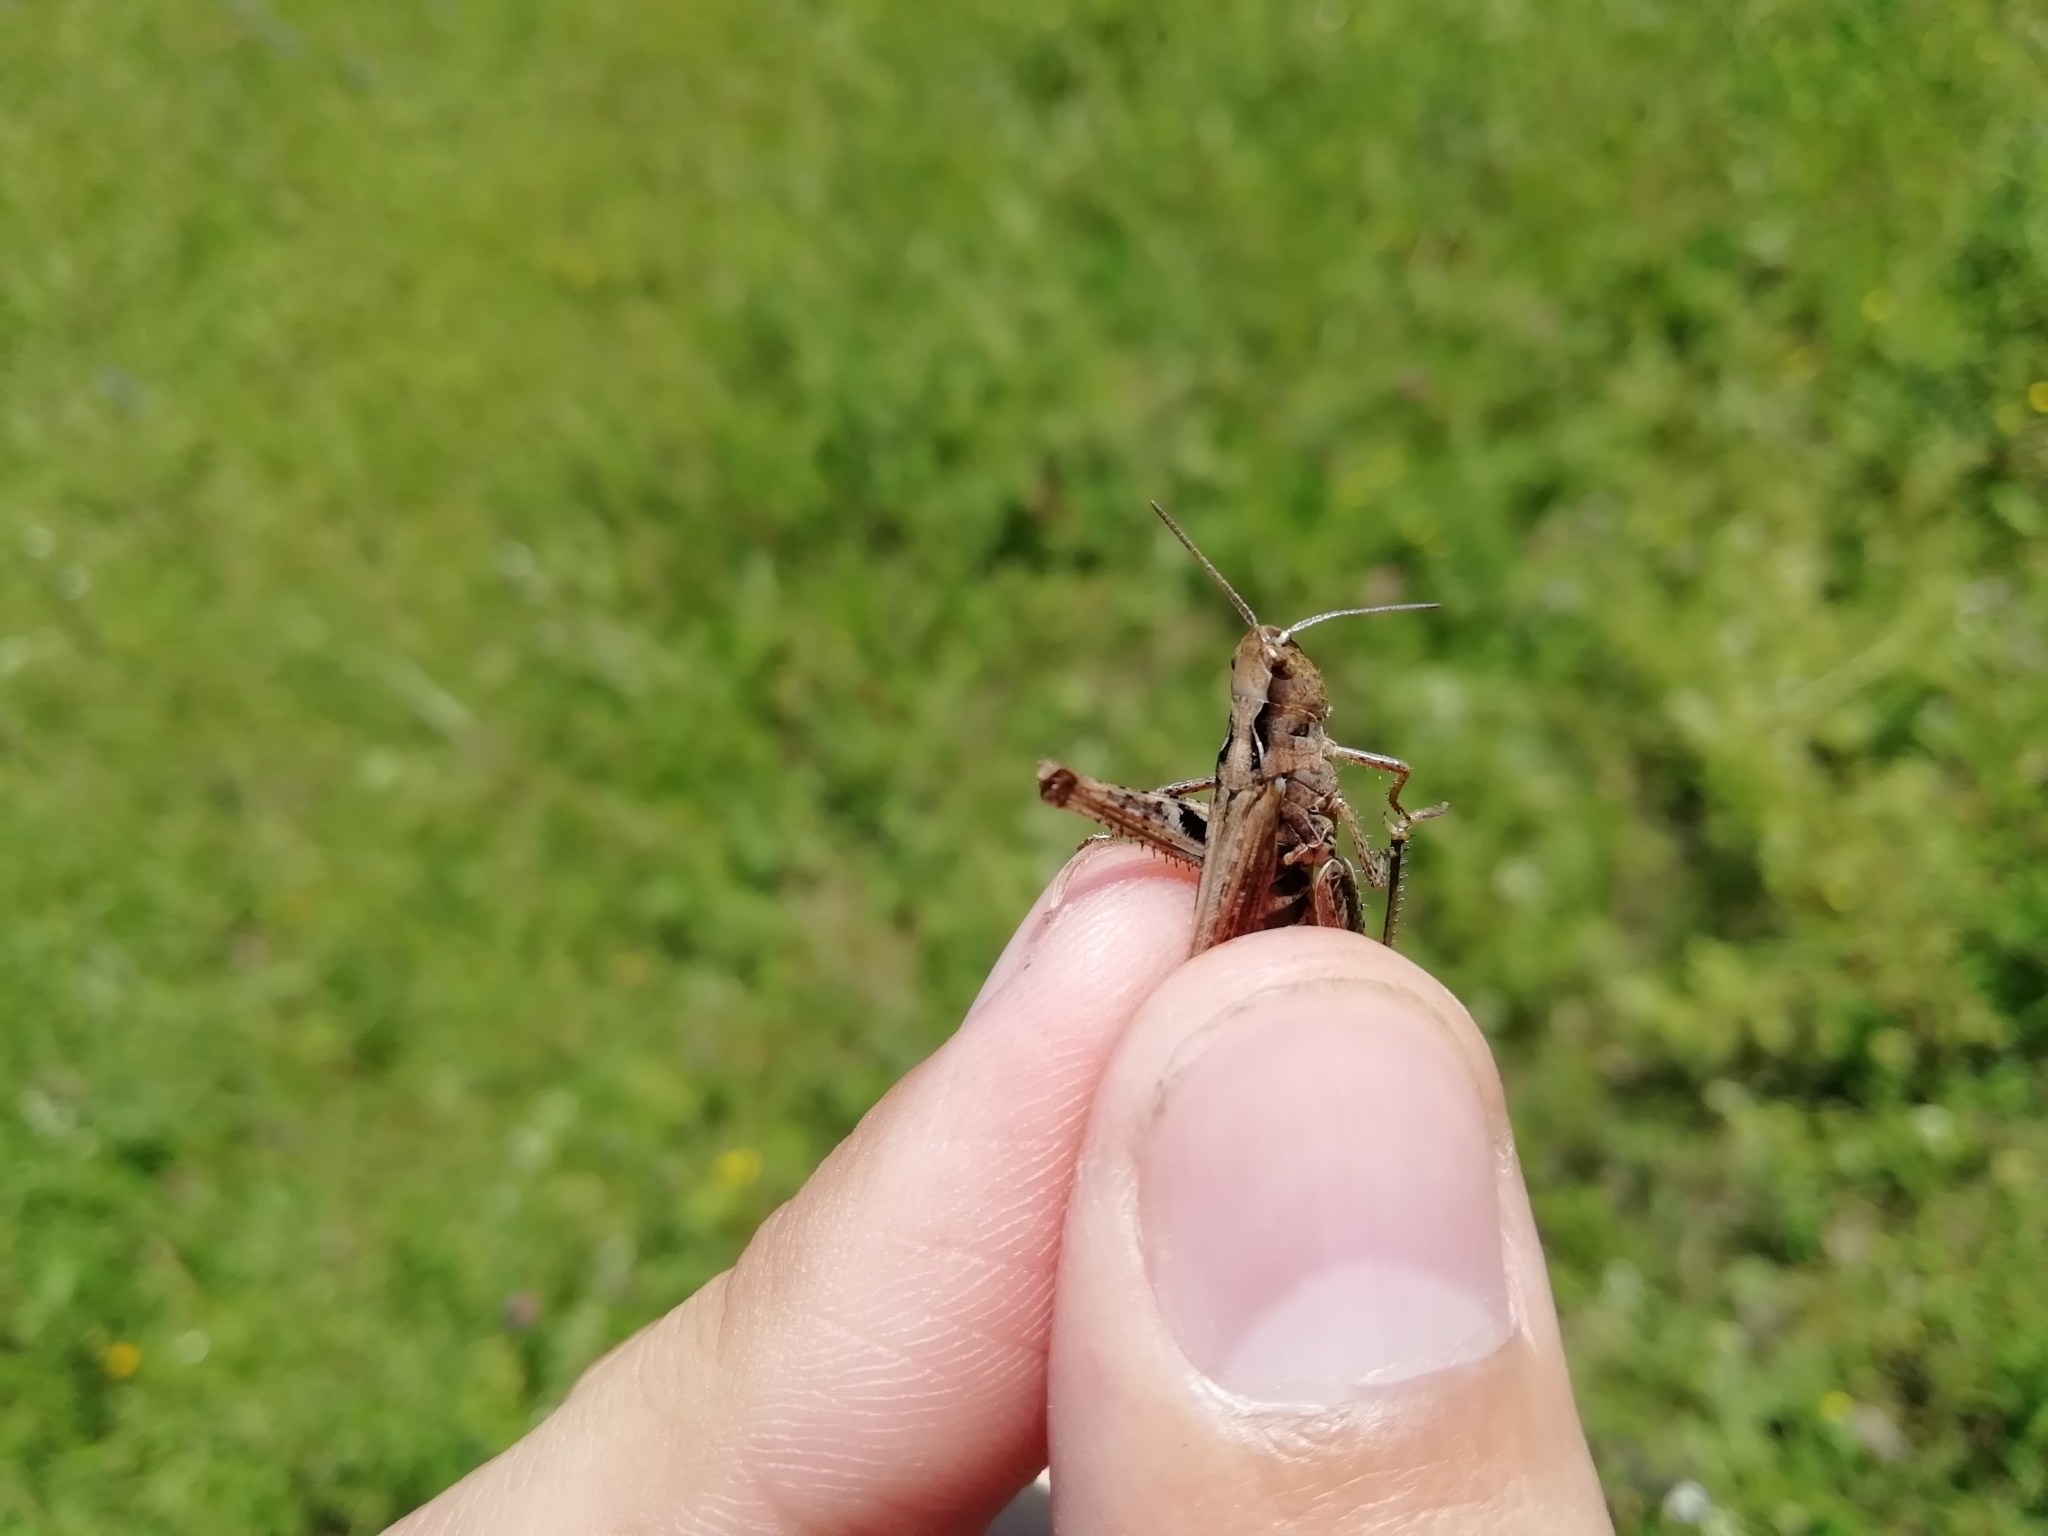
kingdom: Animalia
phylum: Arthropoda
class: Insecta
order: Orthoptera
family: Acrididae
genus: Chorthippus
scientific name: Chorthippus biguttulus
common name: Bow-winged grasshopper
